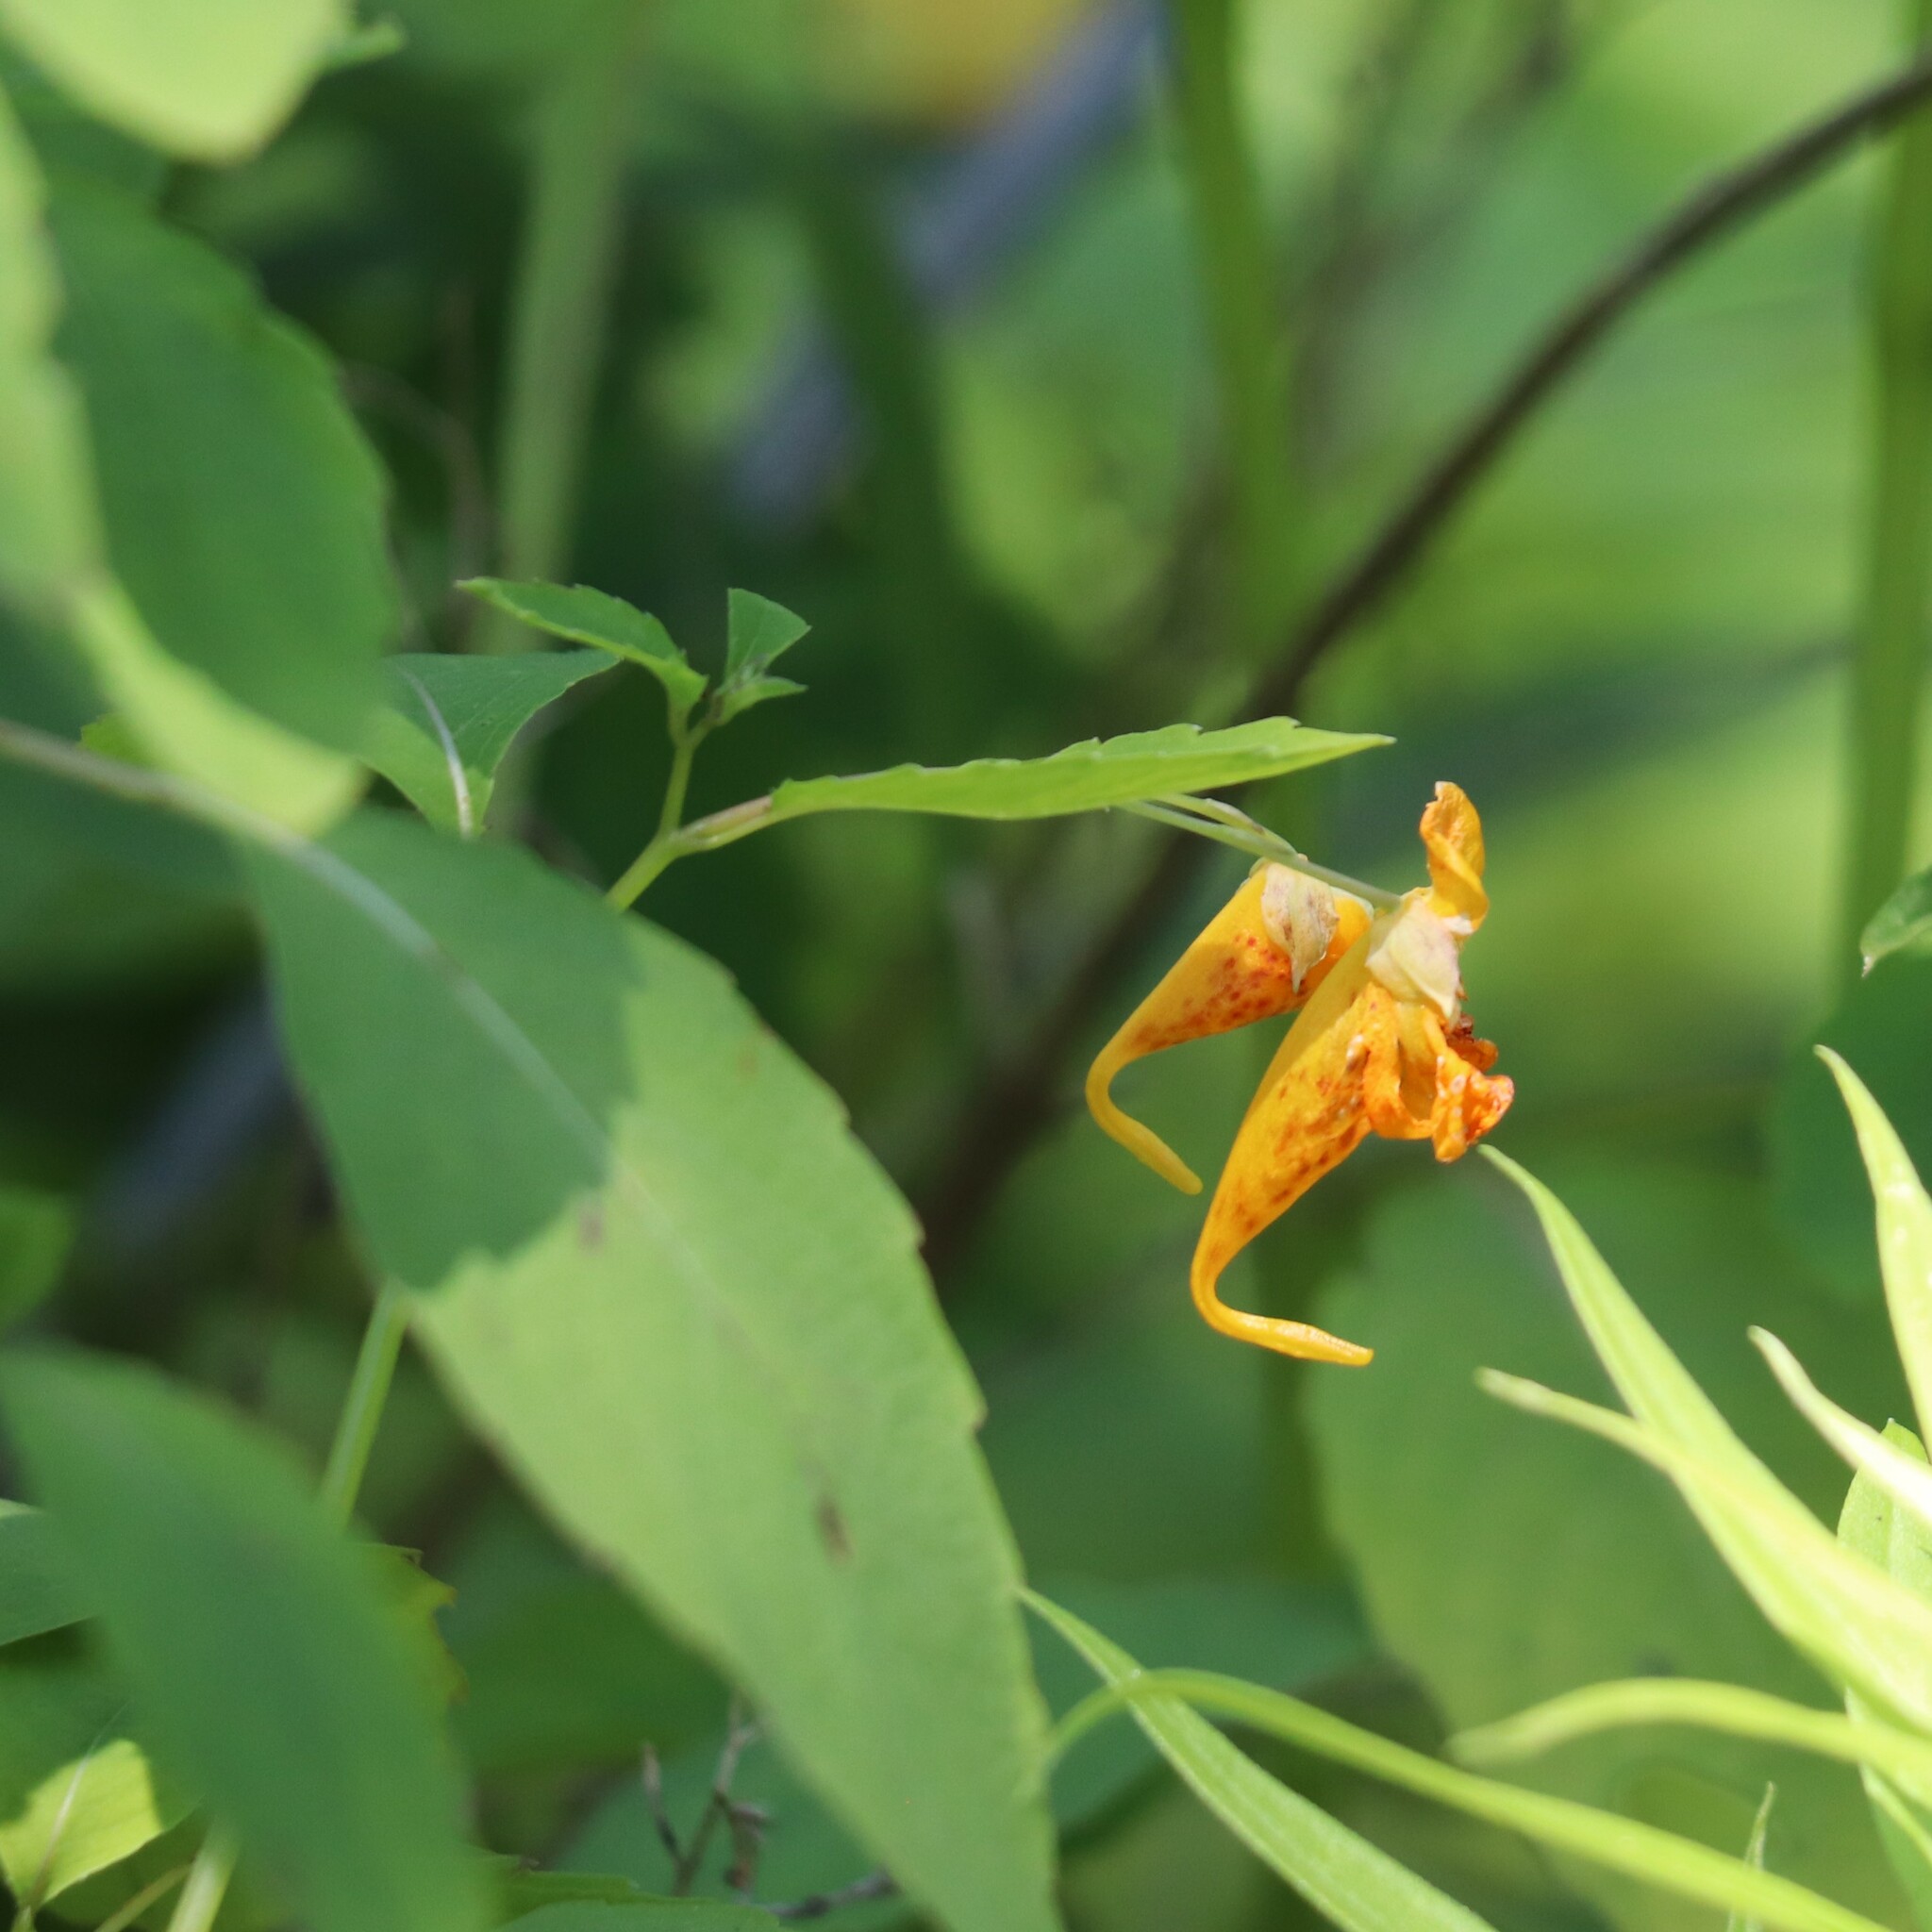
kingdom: Plantae
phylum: Tracheophyta
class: Magnoliopsida
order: Ericales
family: Balsaminaceae
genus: Impatiens
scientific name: Impatiens capensis
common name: Orange balsam
